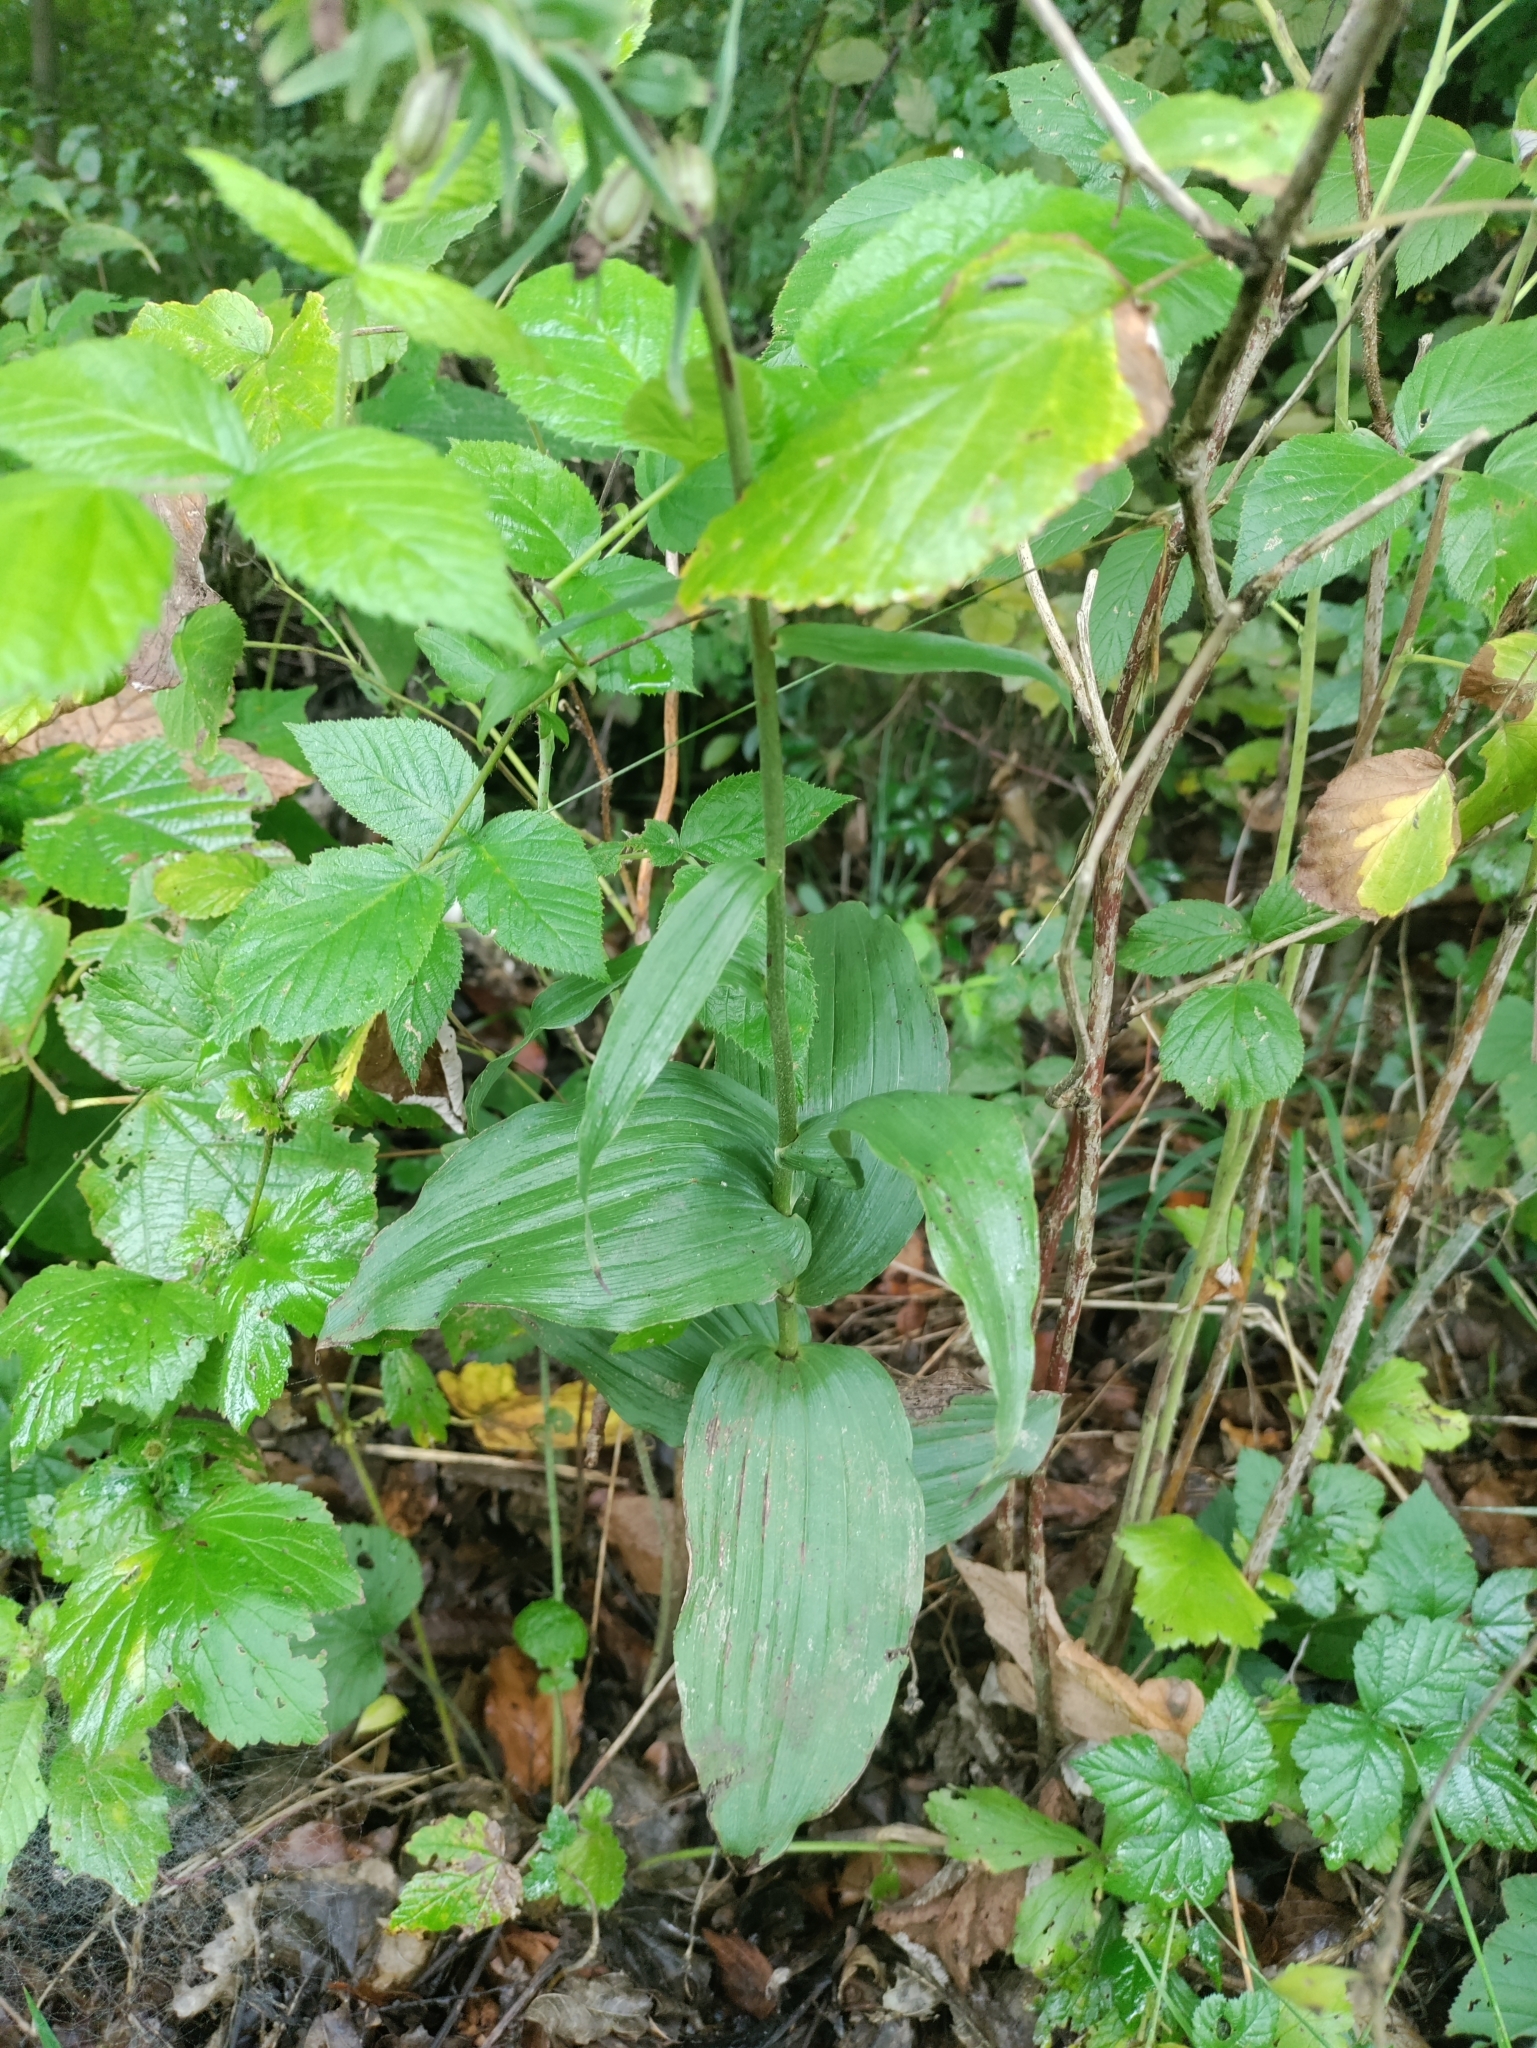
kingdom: Plantae
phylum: Tracheophyta
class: Liliopsida
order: Asparagales
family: Orchidaceae
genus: Epipactis
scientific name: Epipactis helleborine
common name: Broad-leaved helleborine
